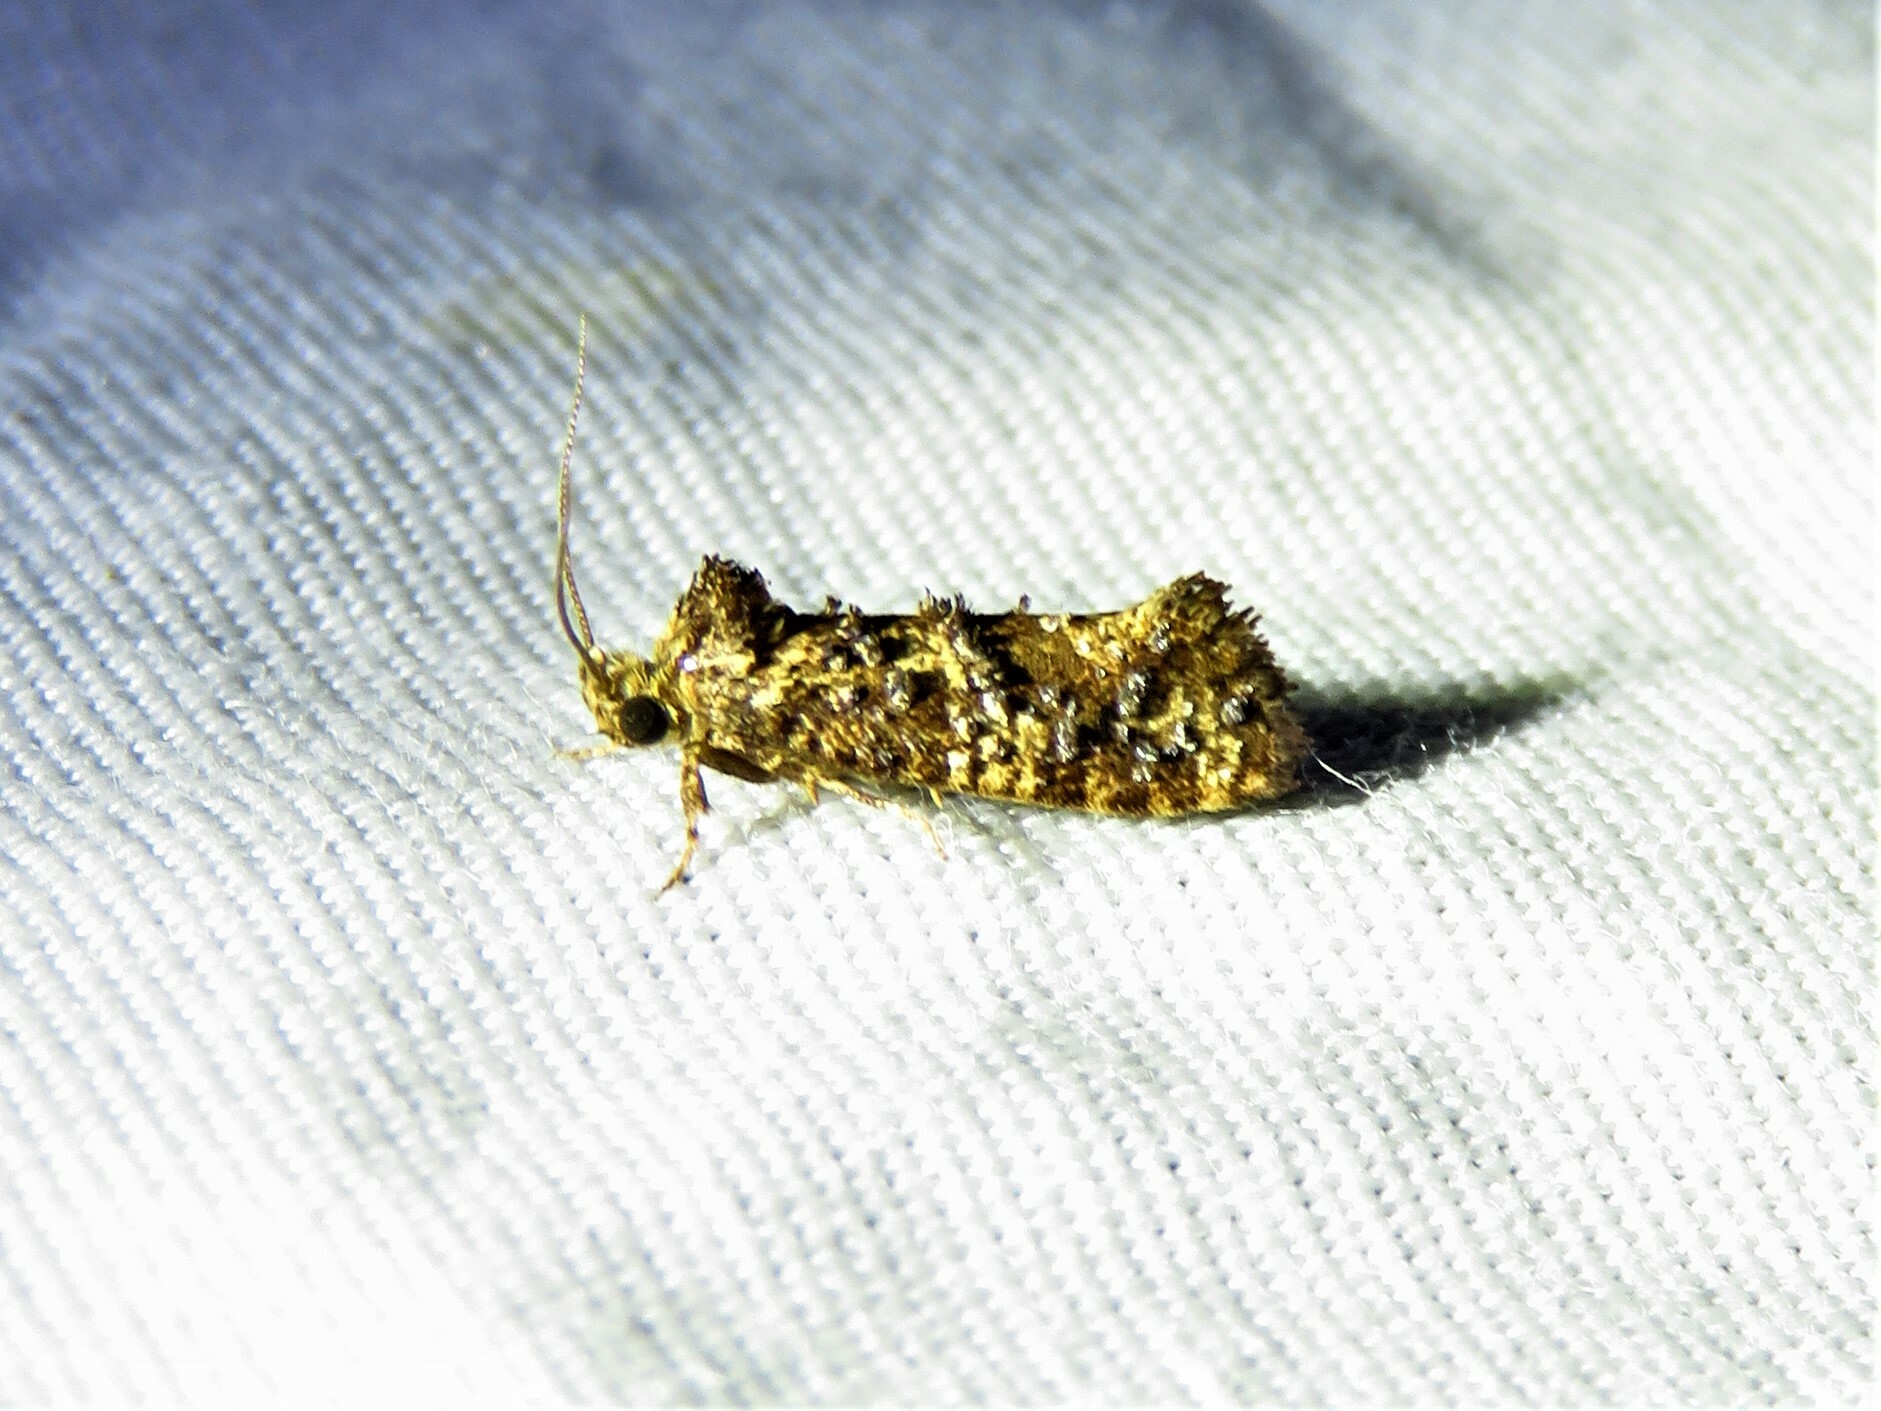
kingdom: Animalia
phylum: Arthropoda
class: Insecta
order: Lepidoptera
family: Tineidae
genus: Acrolophus
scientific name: Acrolophus cressoni
